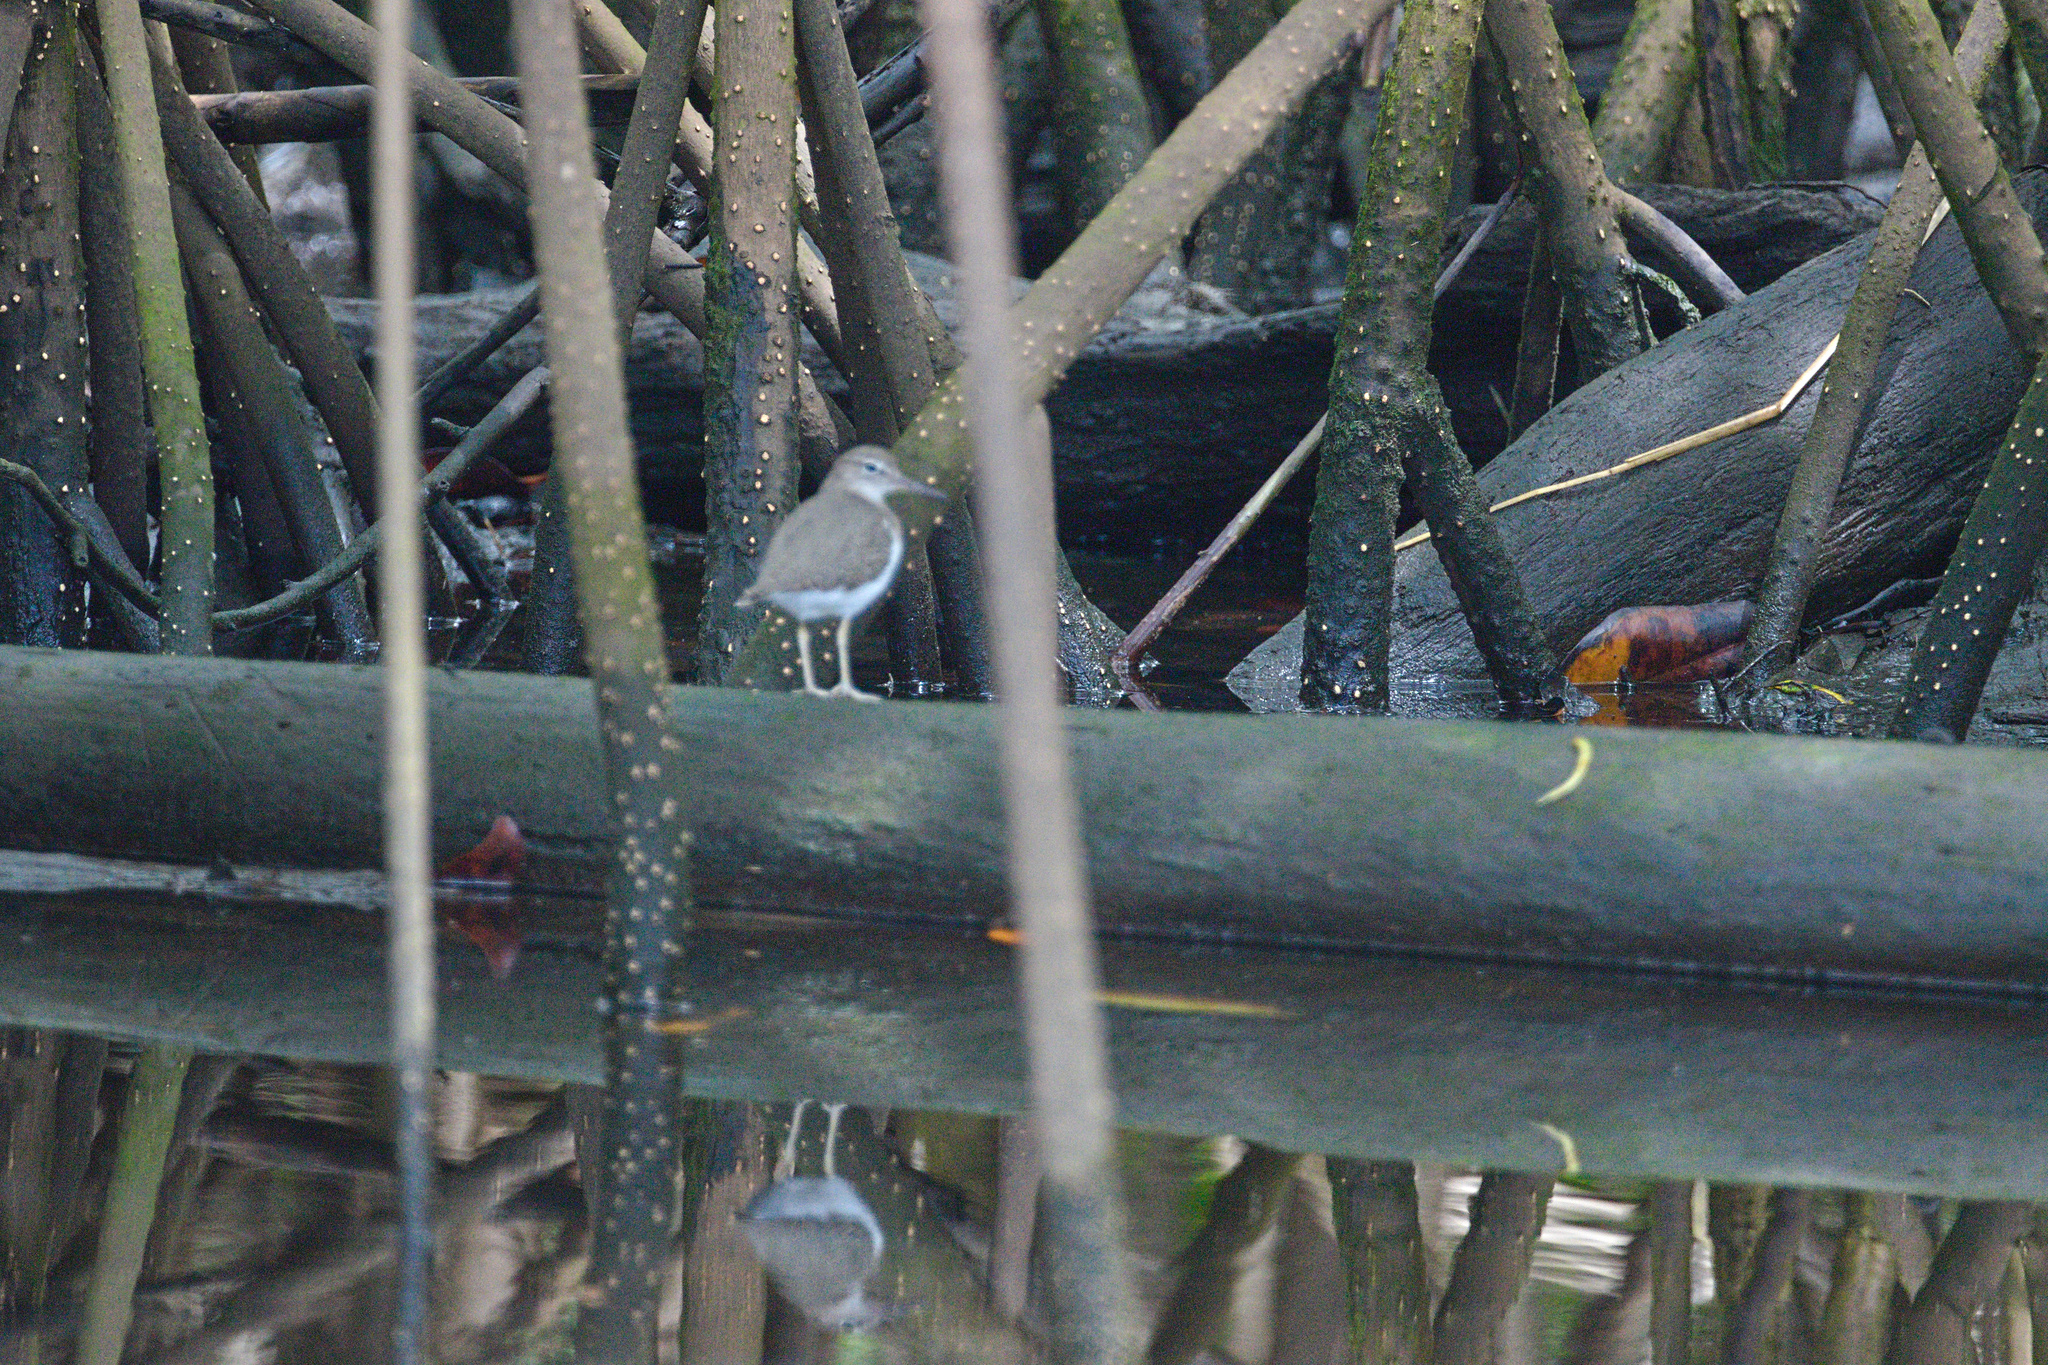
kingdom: Animalia
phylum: Chordata
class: Aves
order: Charadriiformes
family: Scolopacidae
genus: Actitis
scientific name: Actitis macularius
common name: Spotted sandpiper
